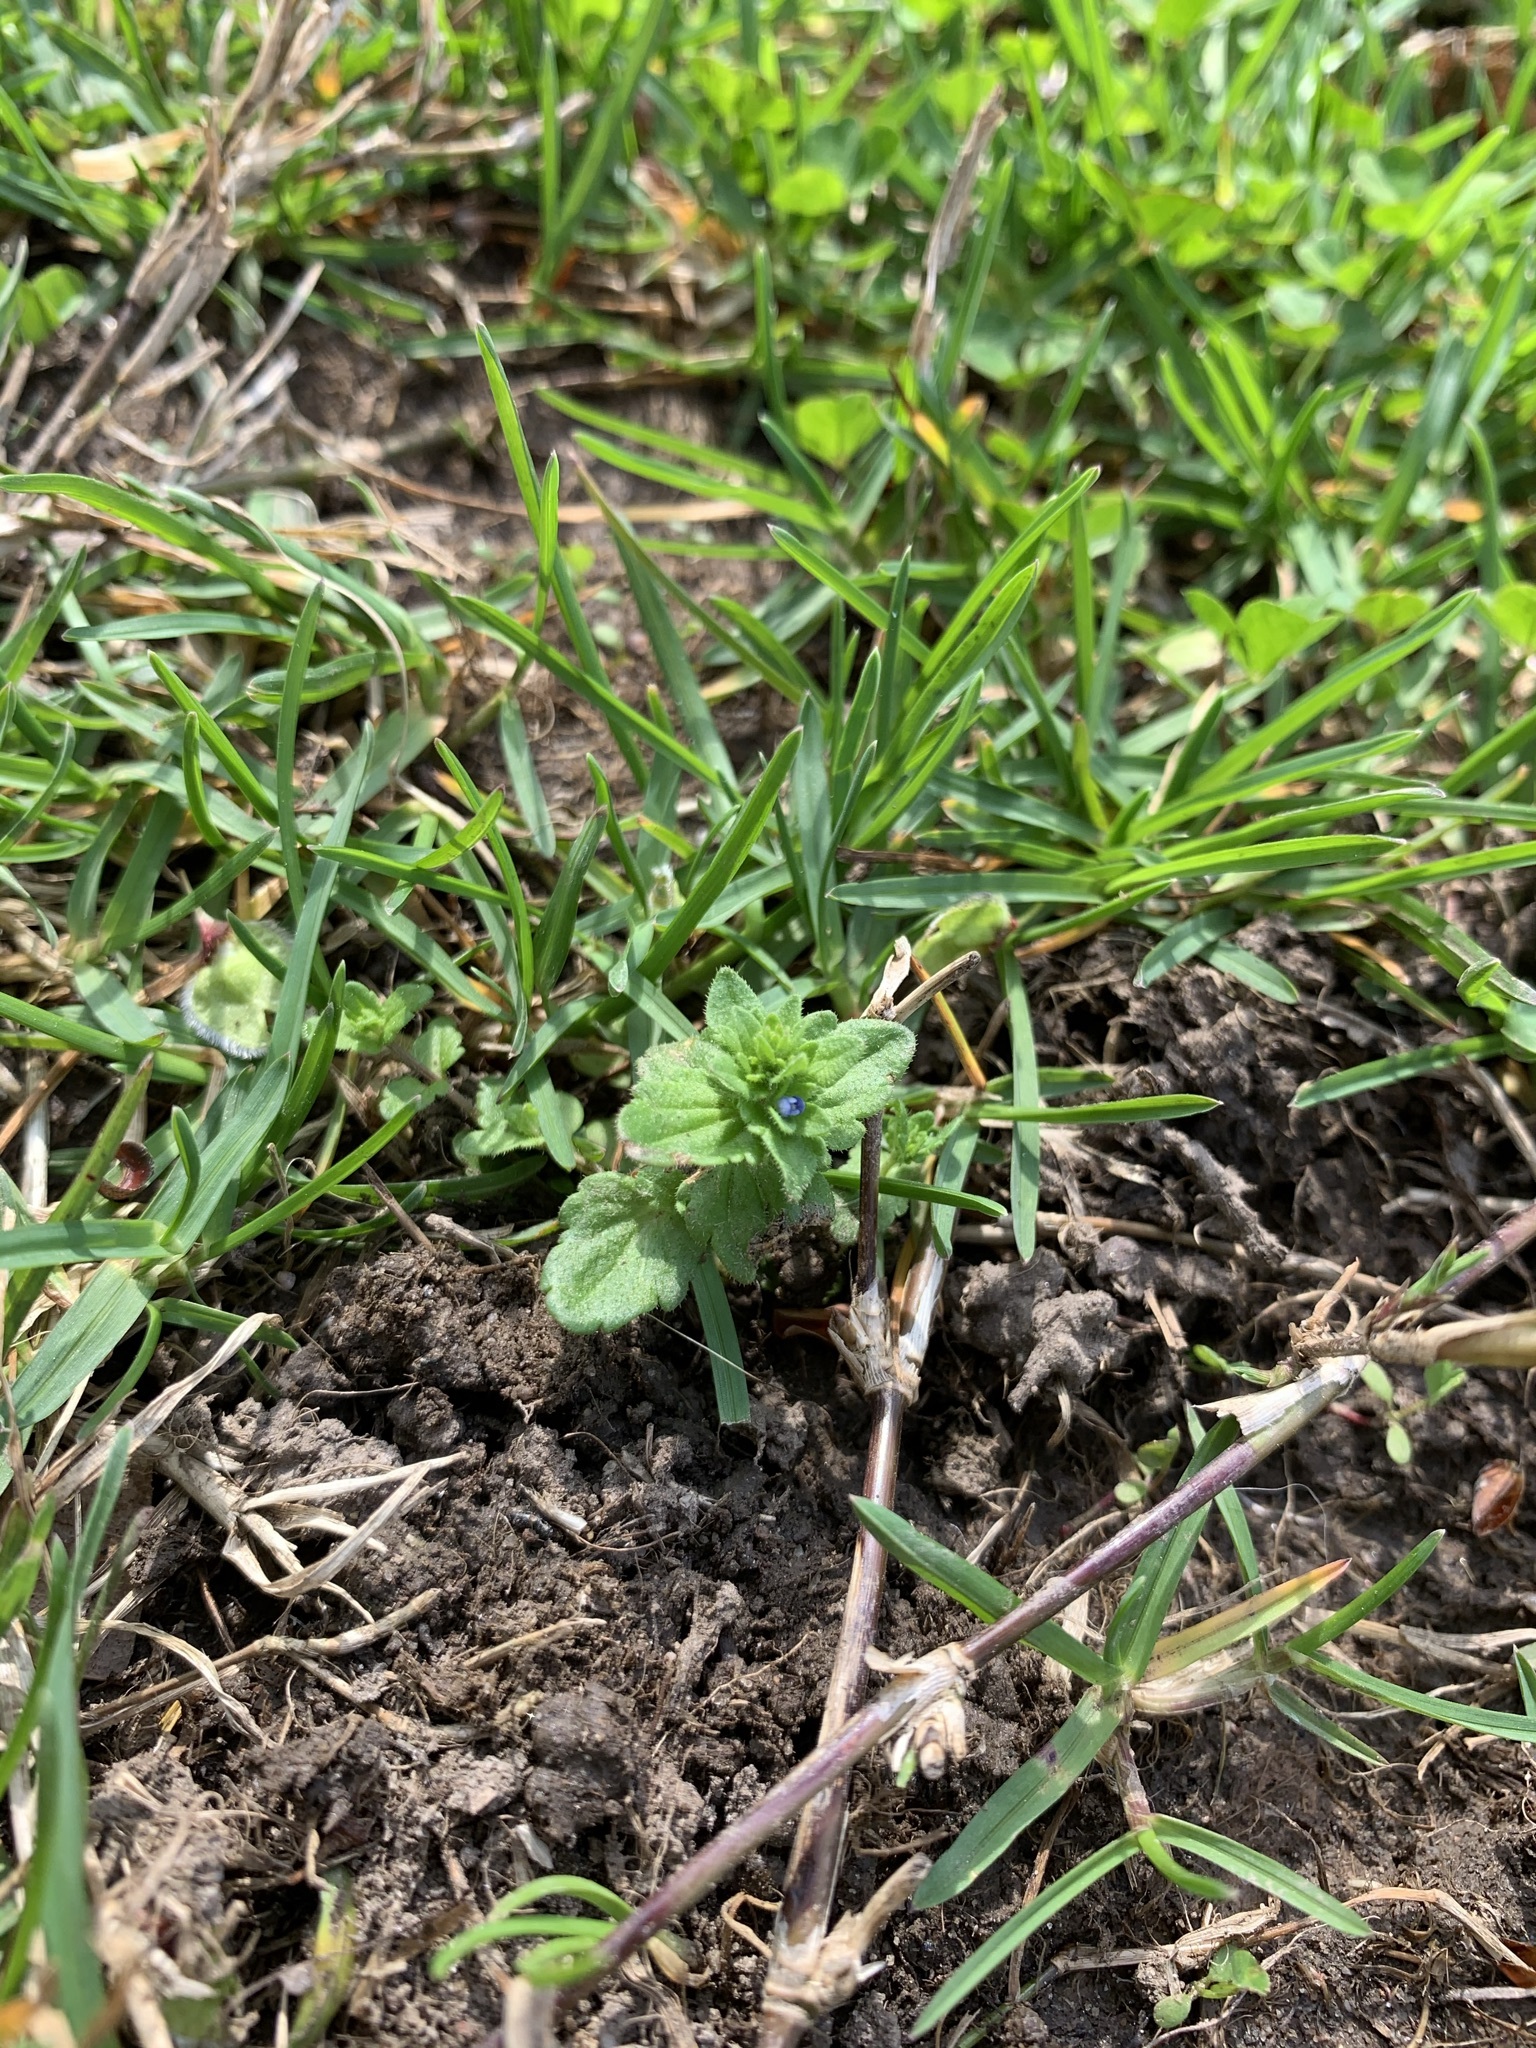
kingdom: Plantae
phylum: Tracheophyta
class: Magnoliopsida
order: Lamiales
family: Plantaginaceae
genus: Veronica
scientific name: Veronica arvensis
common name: Corn speedwell
